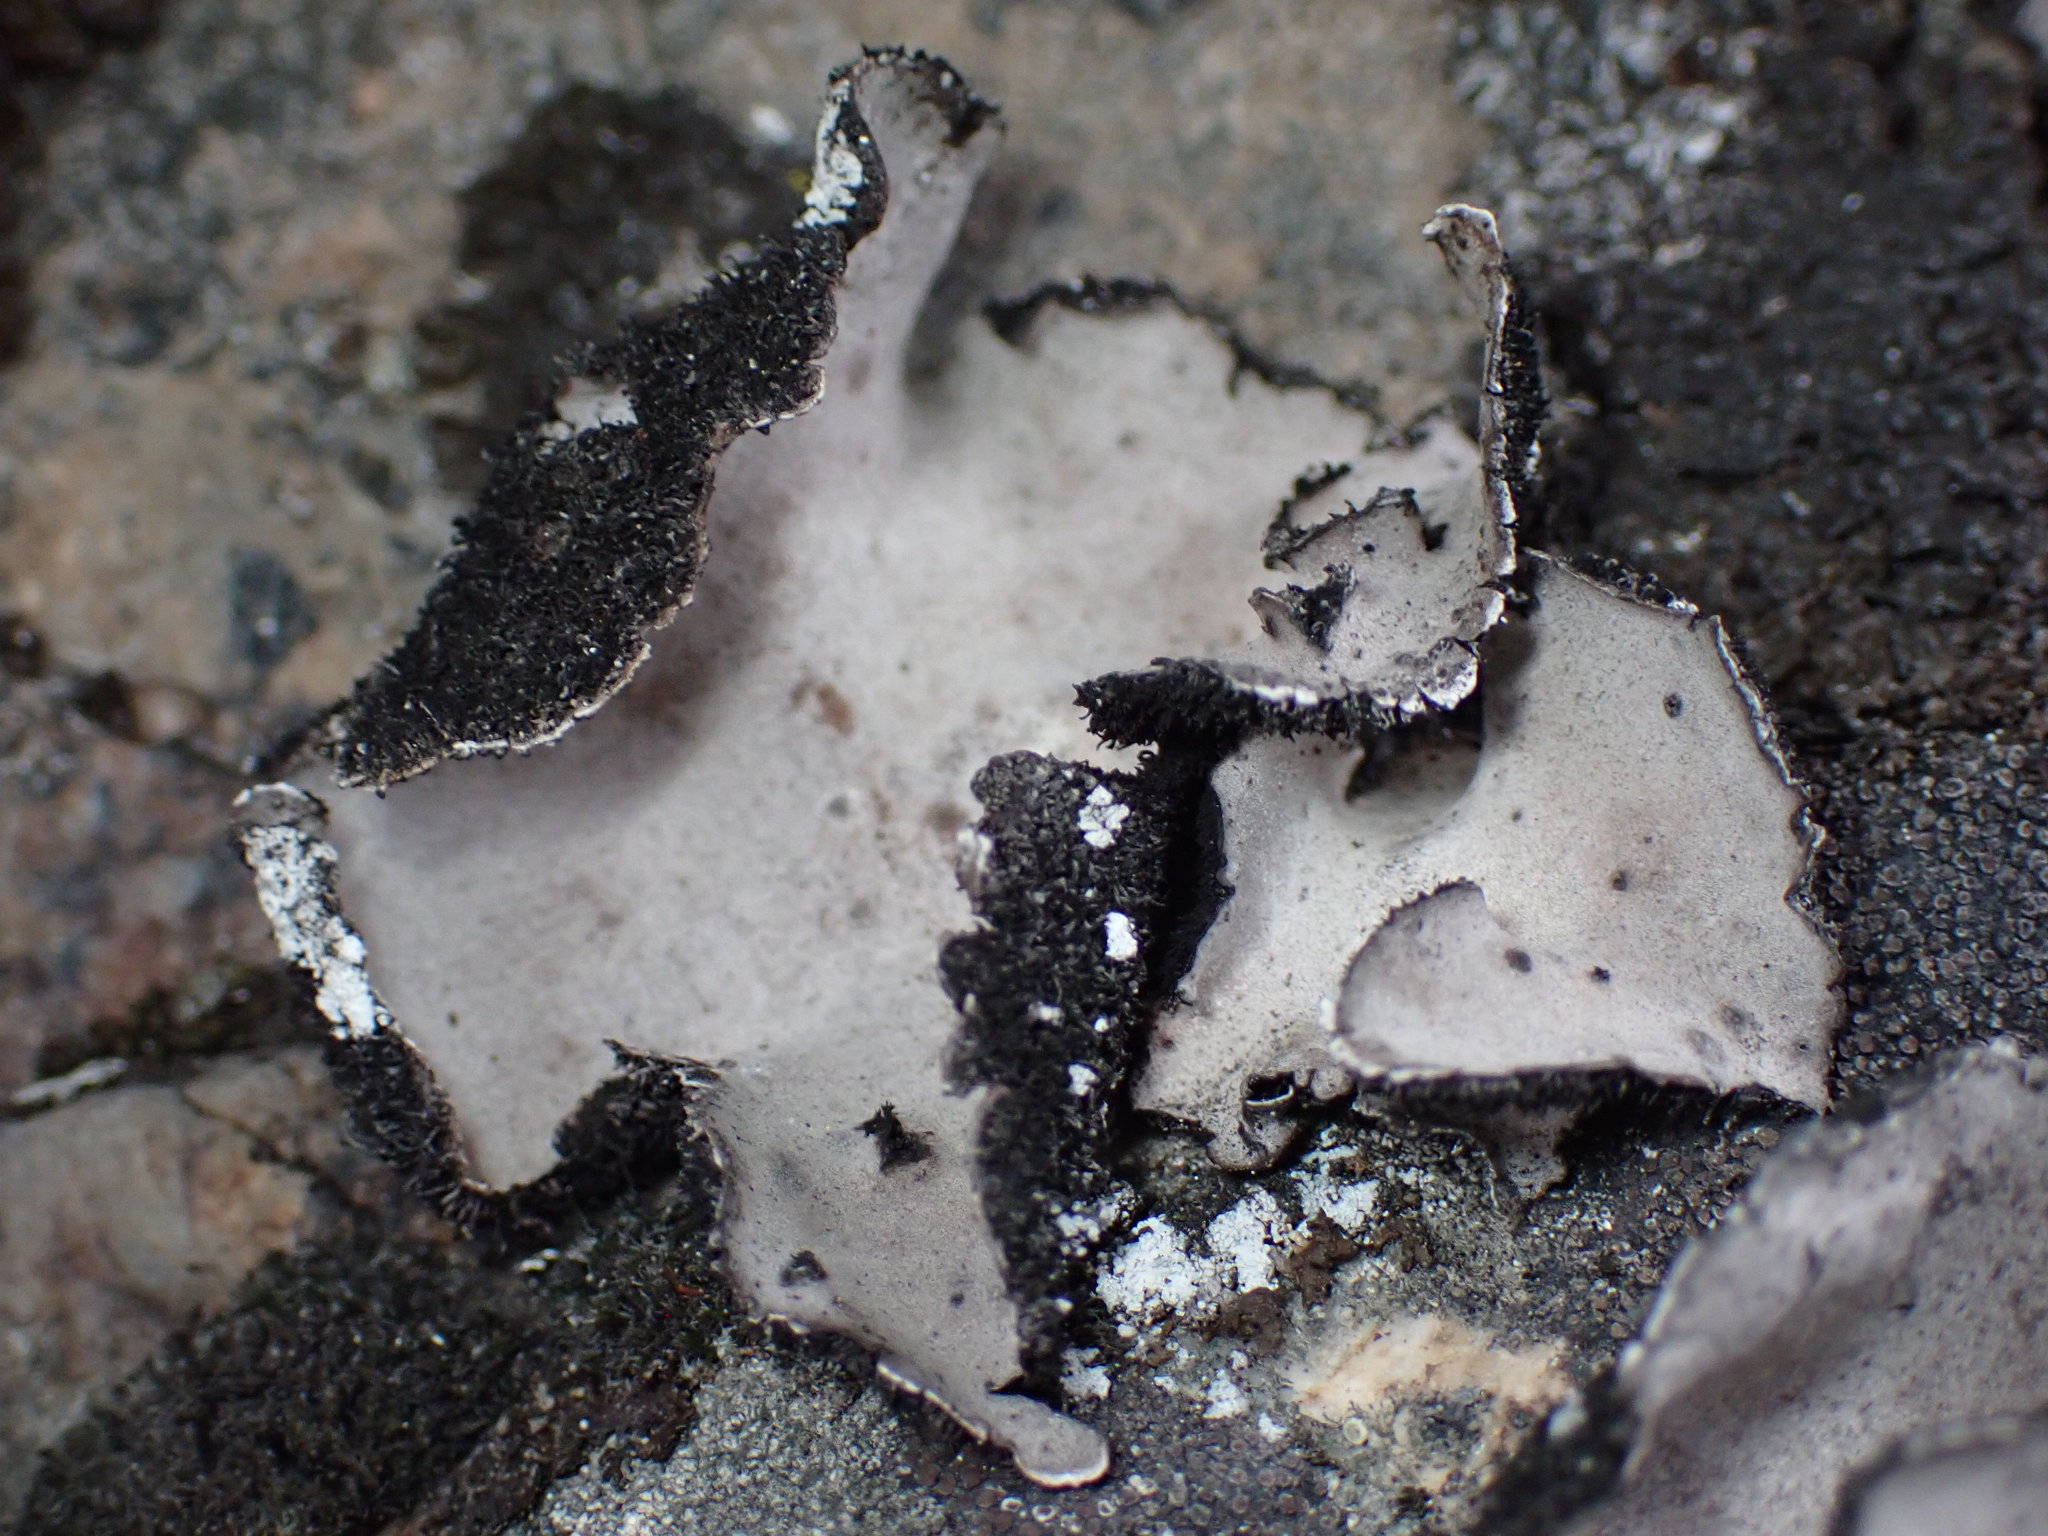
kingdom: Fungi
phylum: Ascomycota
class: Lecanoromycetes
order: Umbilicariales
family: Umbilicariaceae
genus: Umbilicaria
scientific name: Umbilicaria americana
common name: Frosted rock tripe
